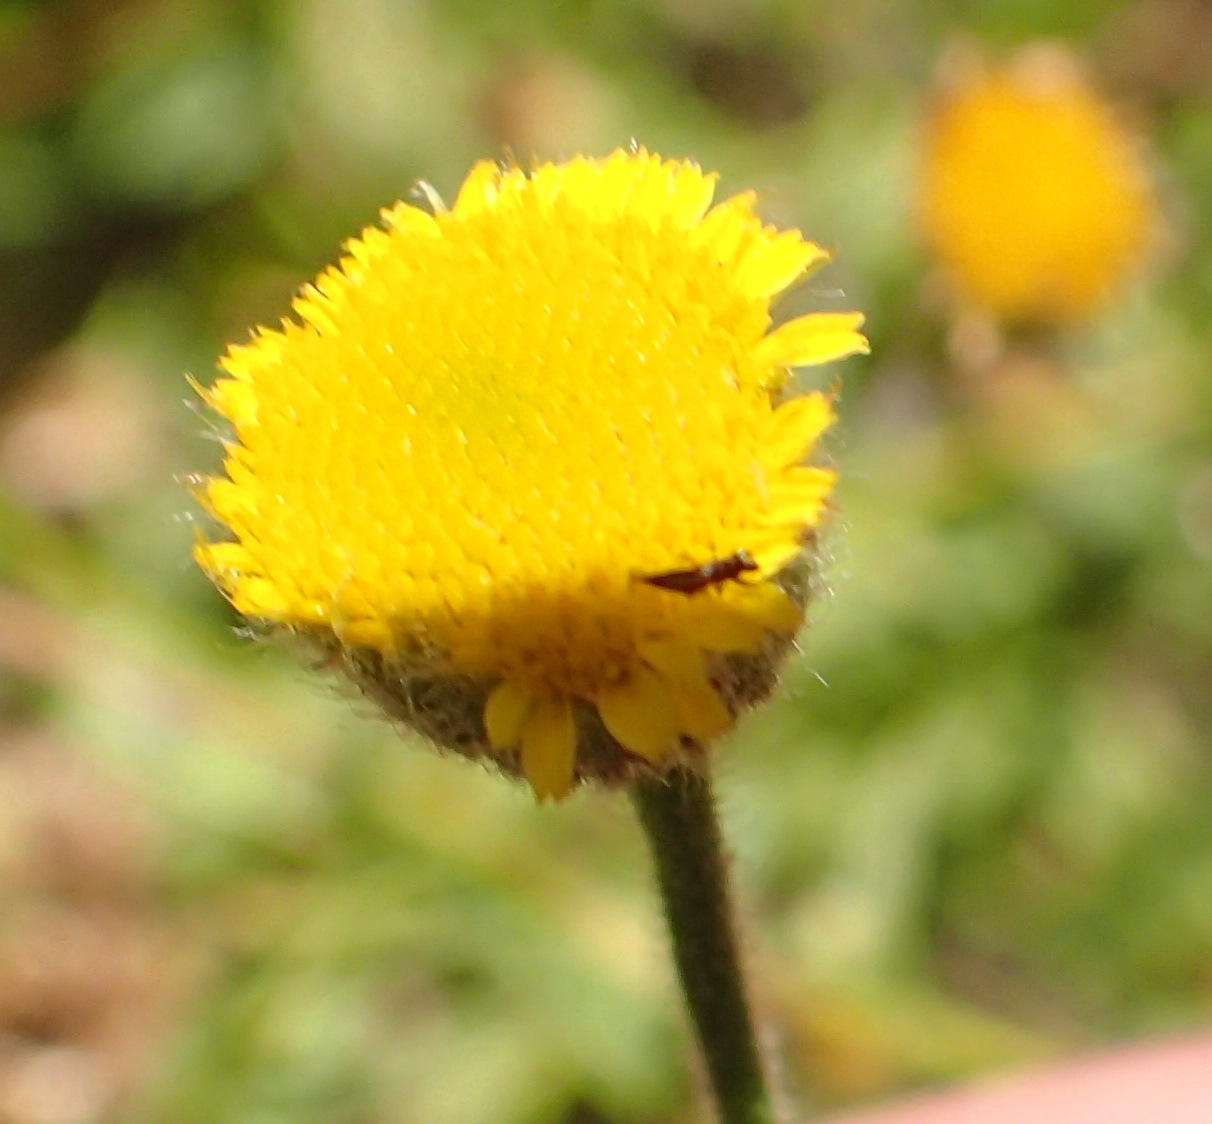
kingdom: Plantae
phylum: Tracheophyta
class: Magnoliopsida
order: Asterales
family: Asteraceae
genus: Pulicaria
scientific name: Pulicaria scabra
